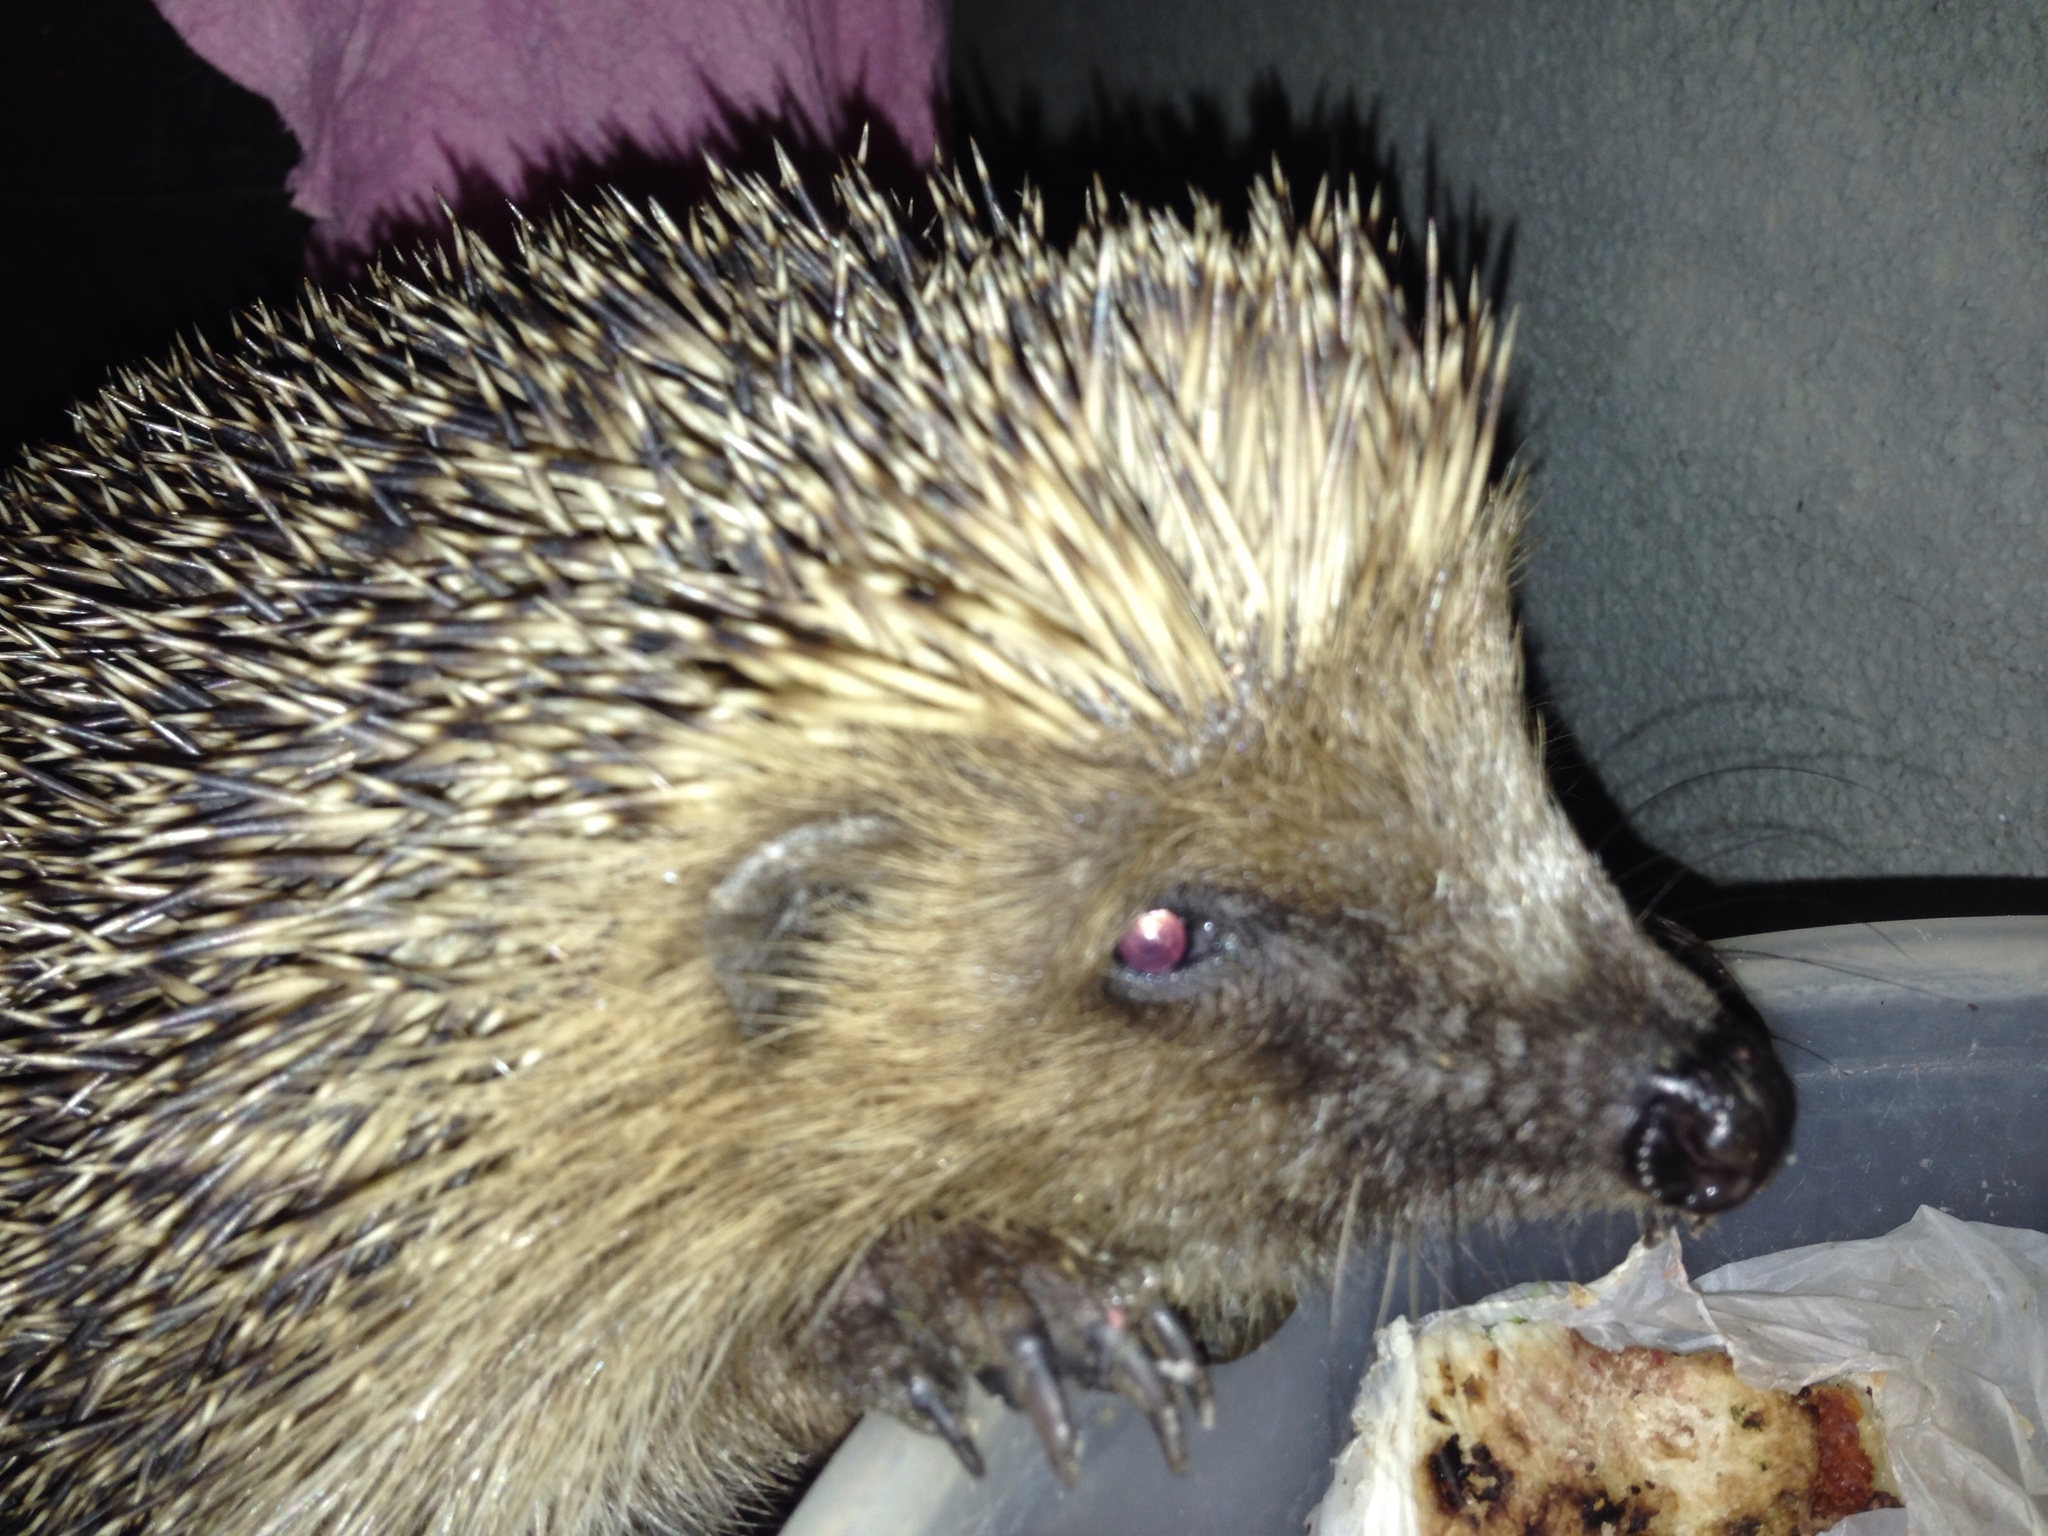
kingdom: Animalia
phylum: Chordata
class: Mammalia
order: Erinaceomorpha
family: Erinaceidae
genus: Erinaceus
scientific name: Erinaceus europaeus
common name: West european hedgehog
